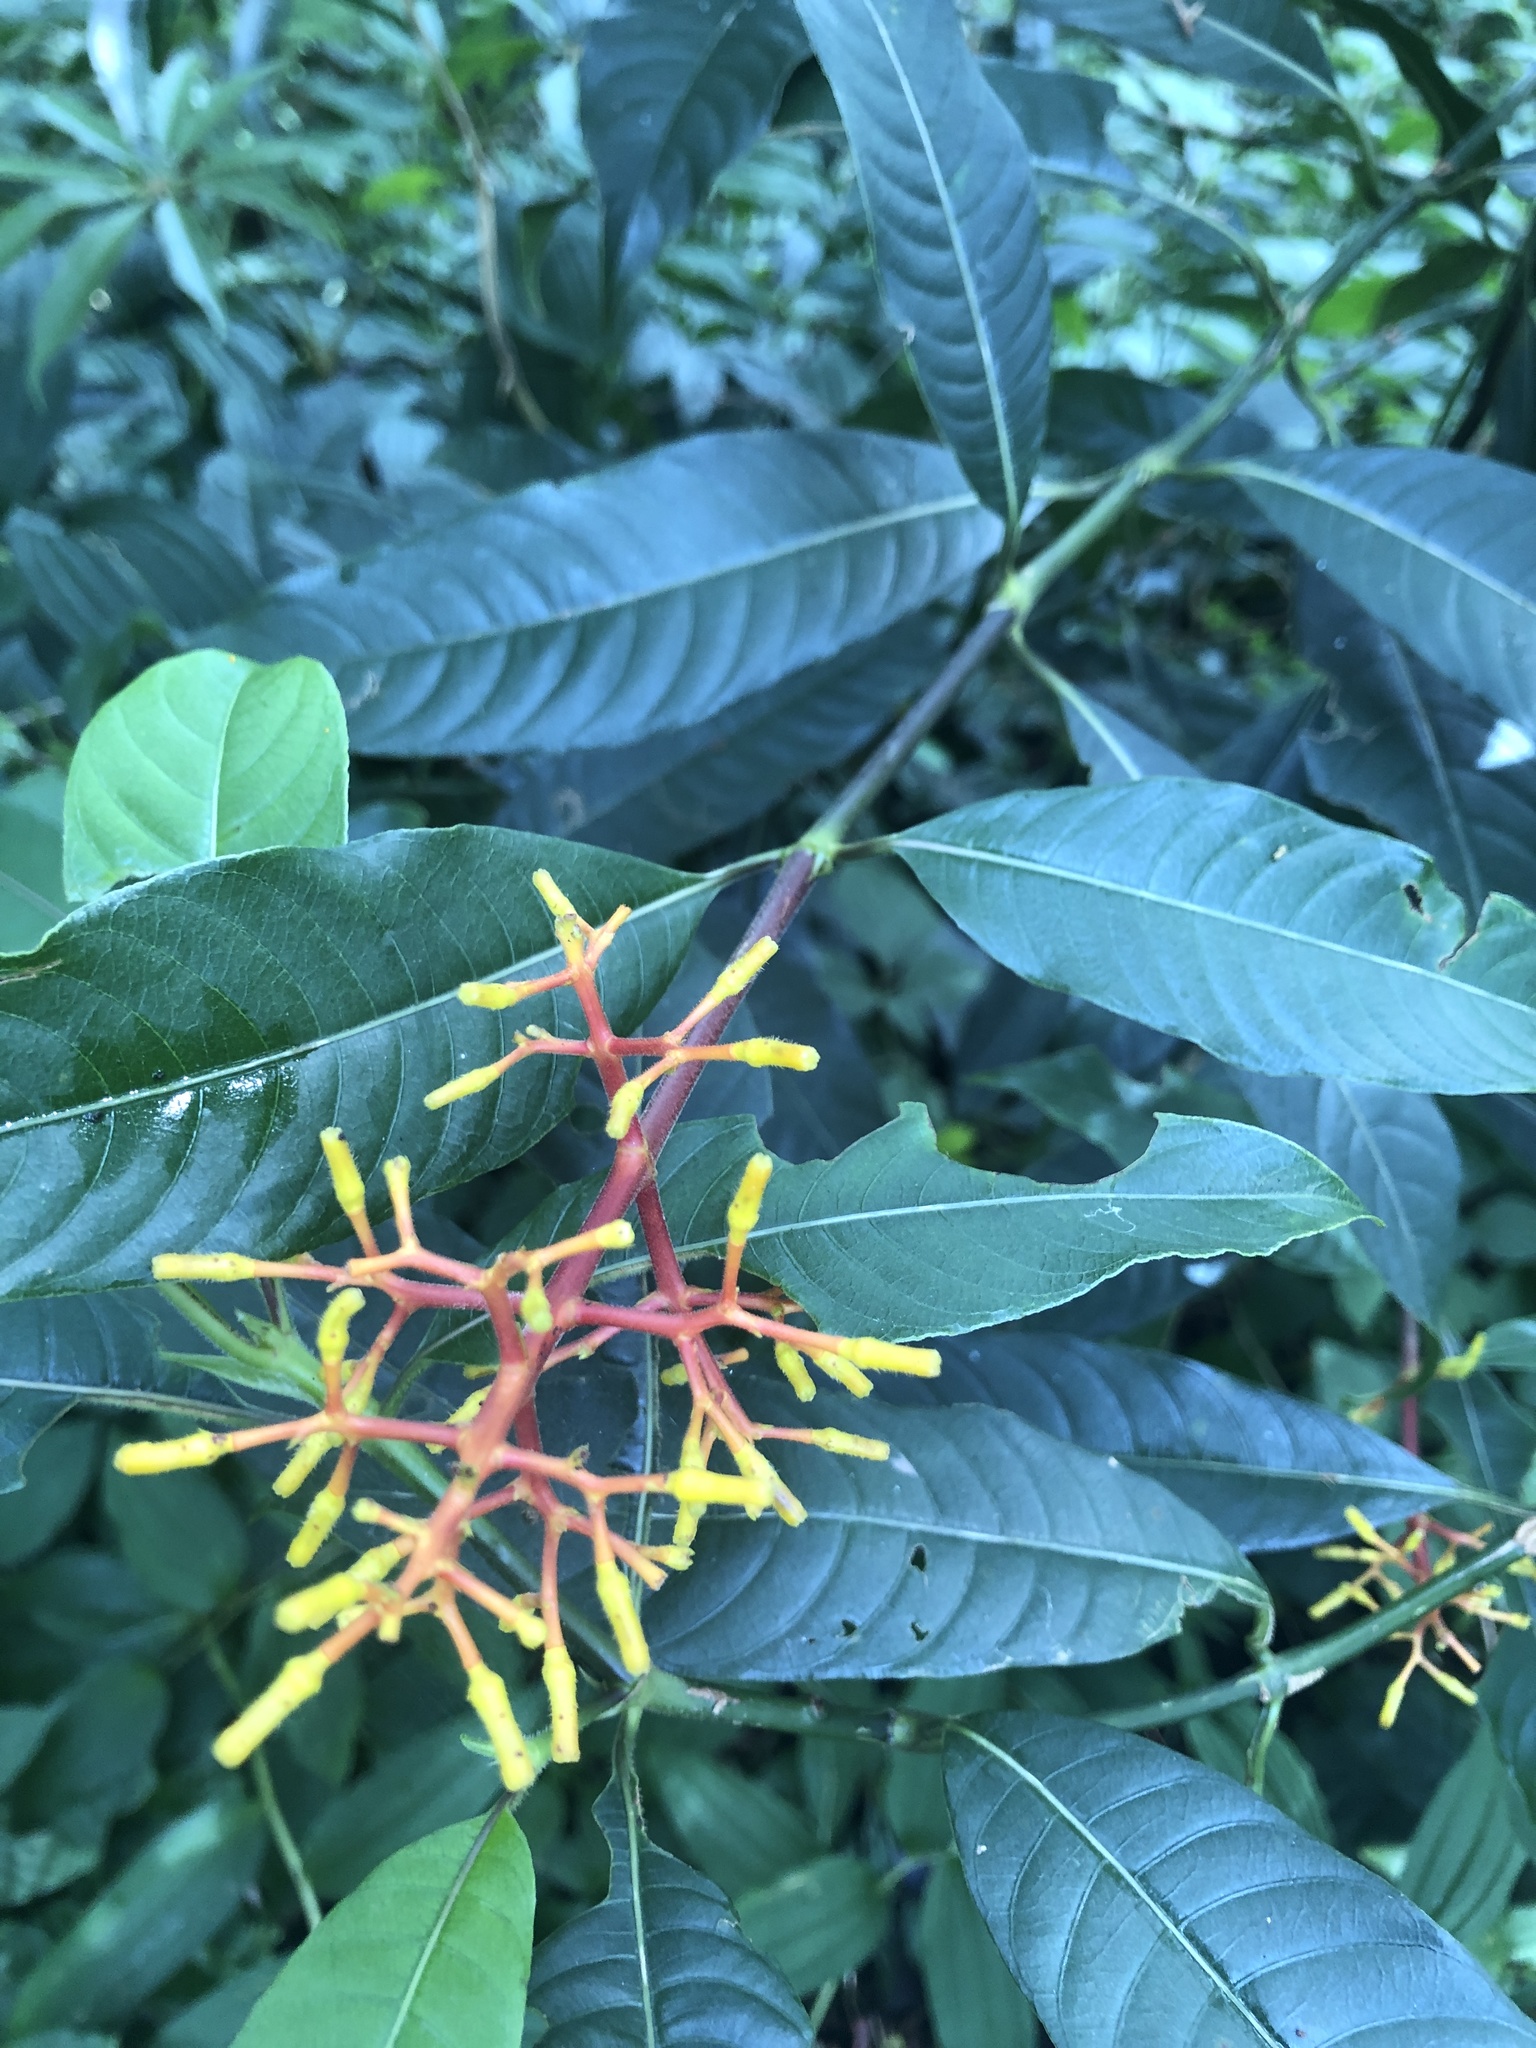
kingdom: Plantae
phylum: Tracheophyta
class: Magnoliopsida
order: Gentianales
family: Rubiaceae
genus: Palicourea
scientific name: Palicourea padifolia
